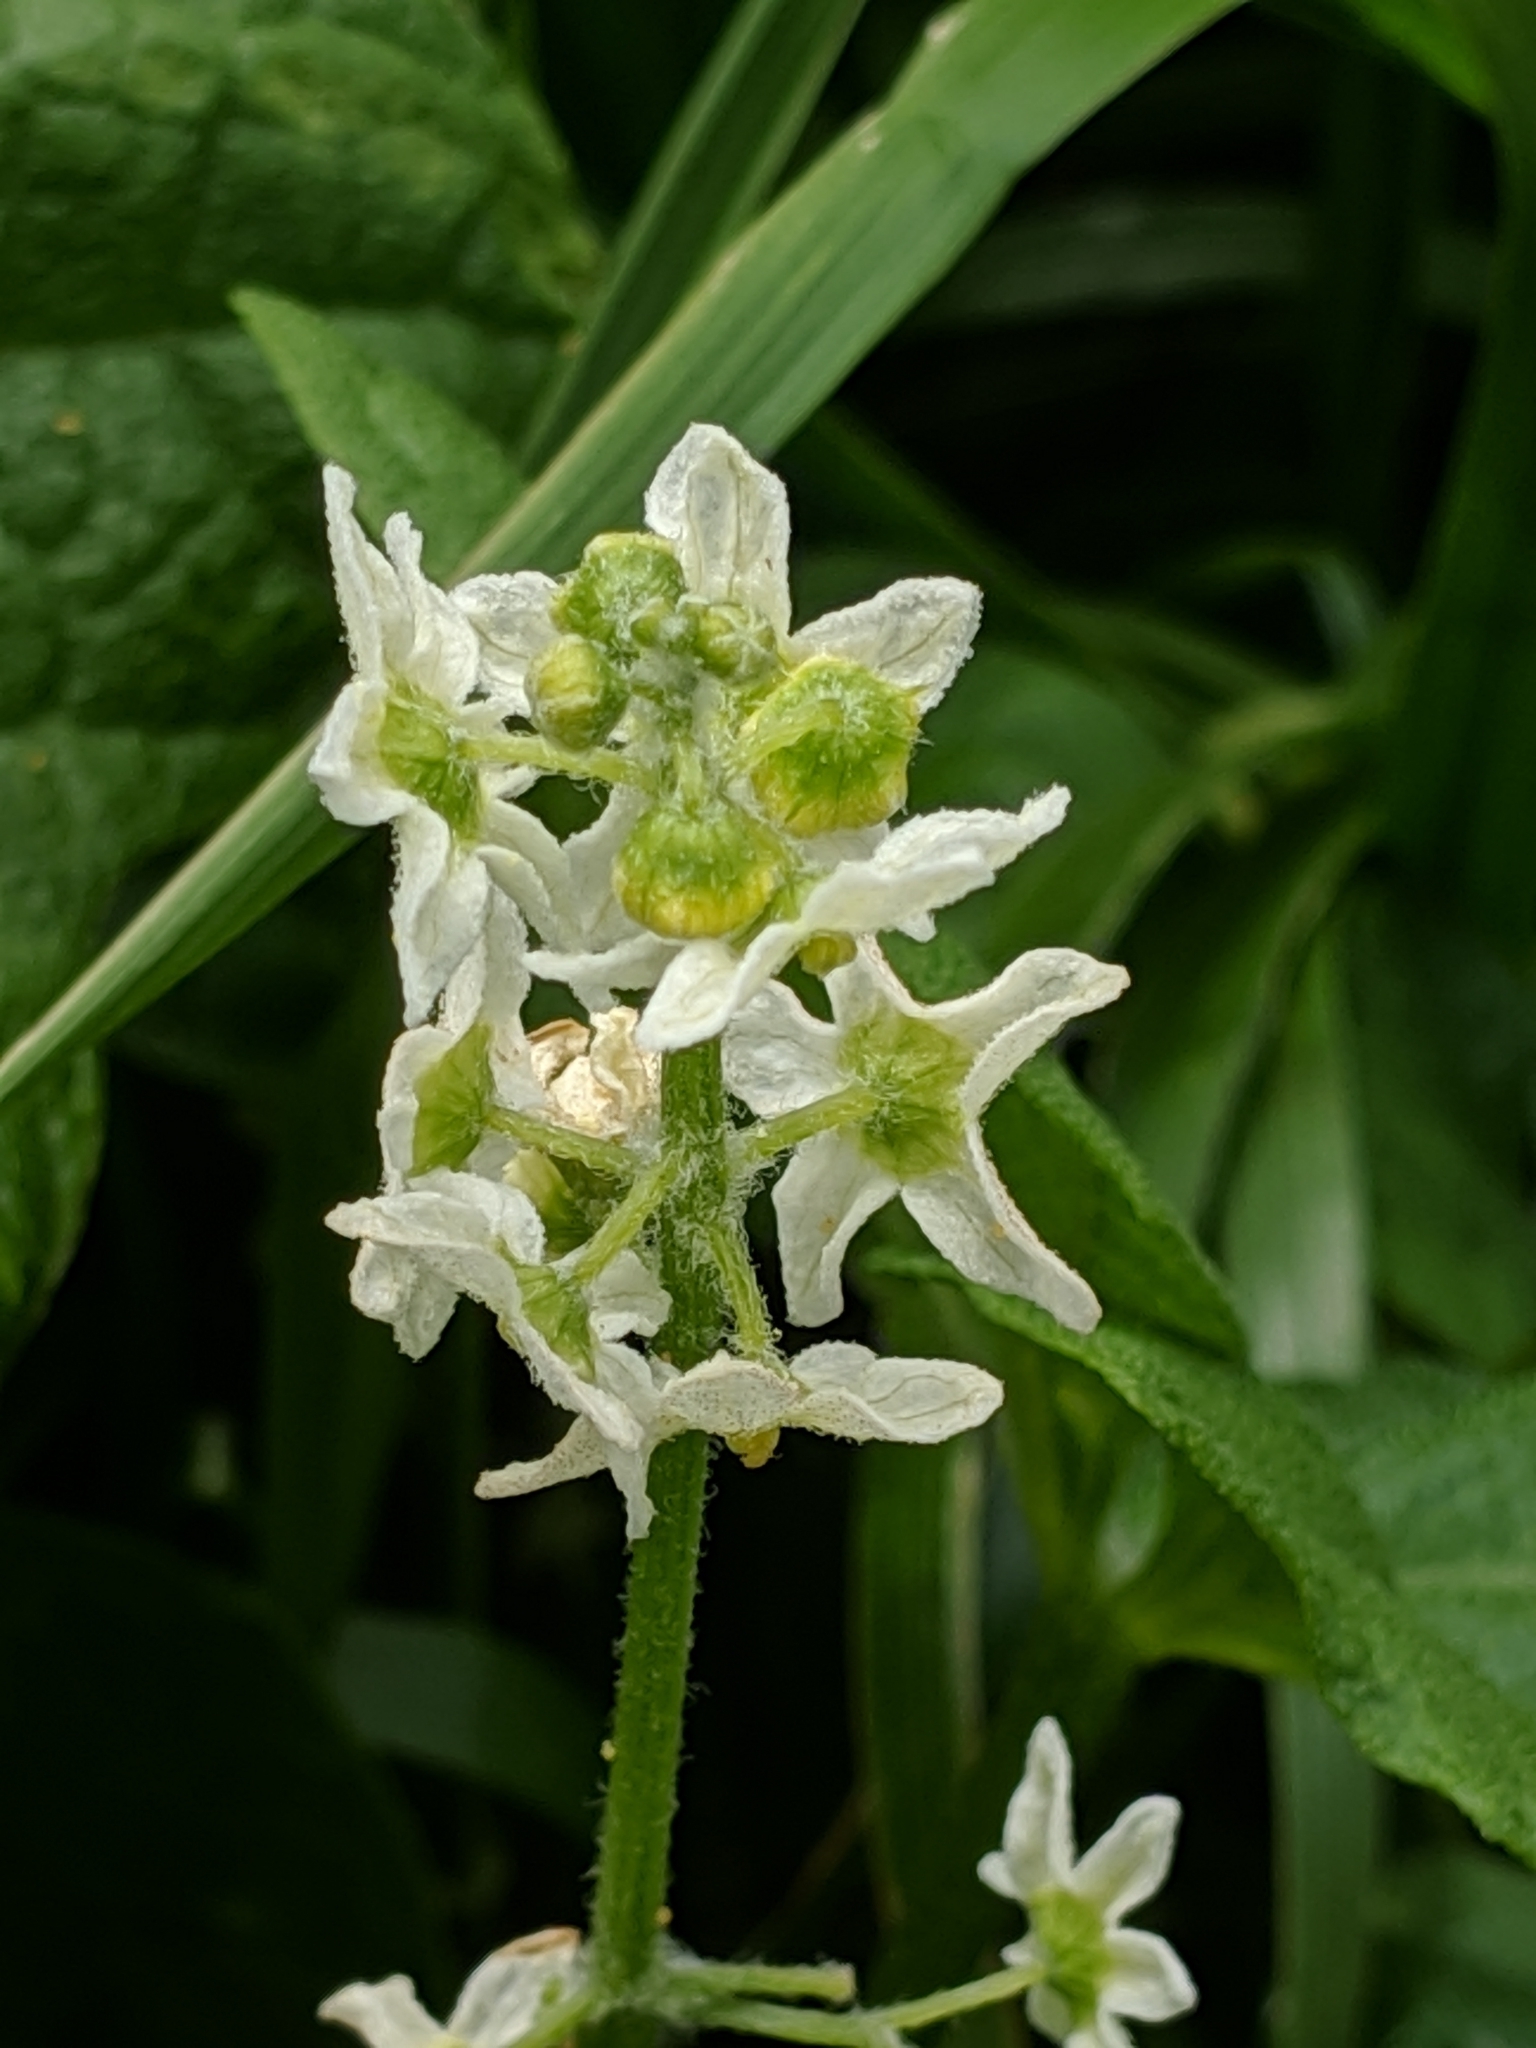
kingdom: Plantae
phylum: Tracheophyta
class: Magnoliopsida
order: Cucurbitales
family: Cucurbitaceae
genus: Marah
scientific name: Marah fabacea
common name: California manroot
